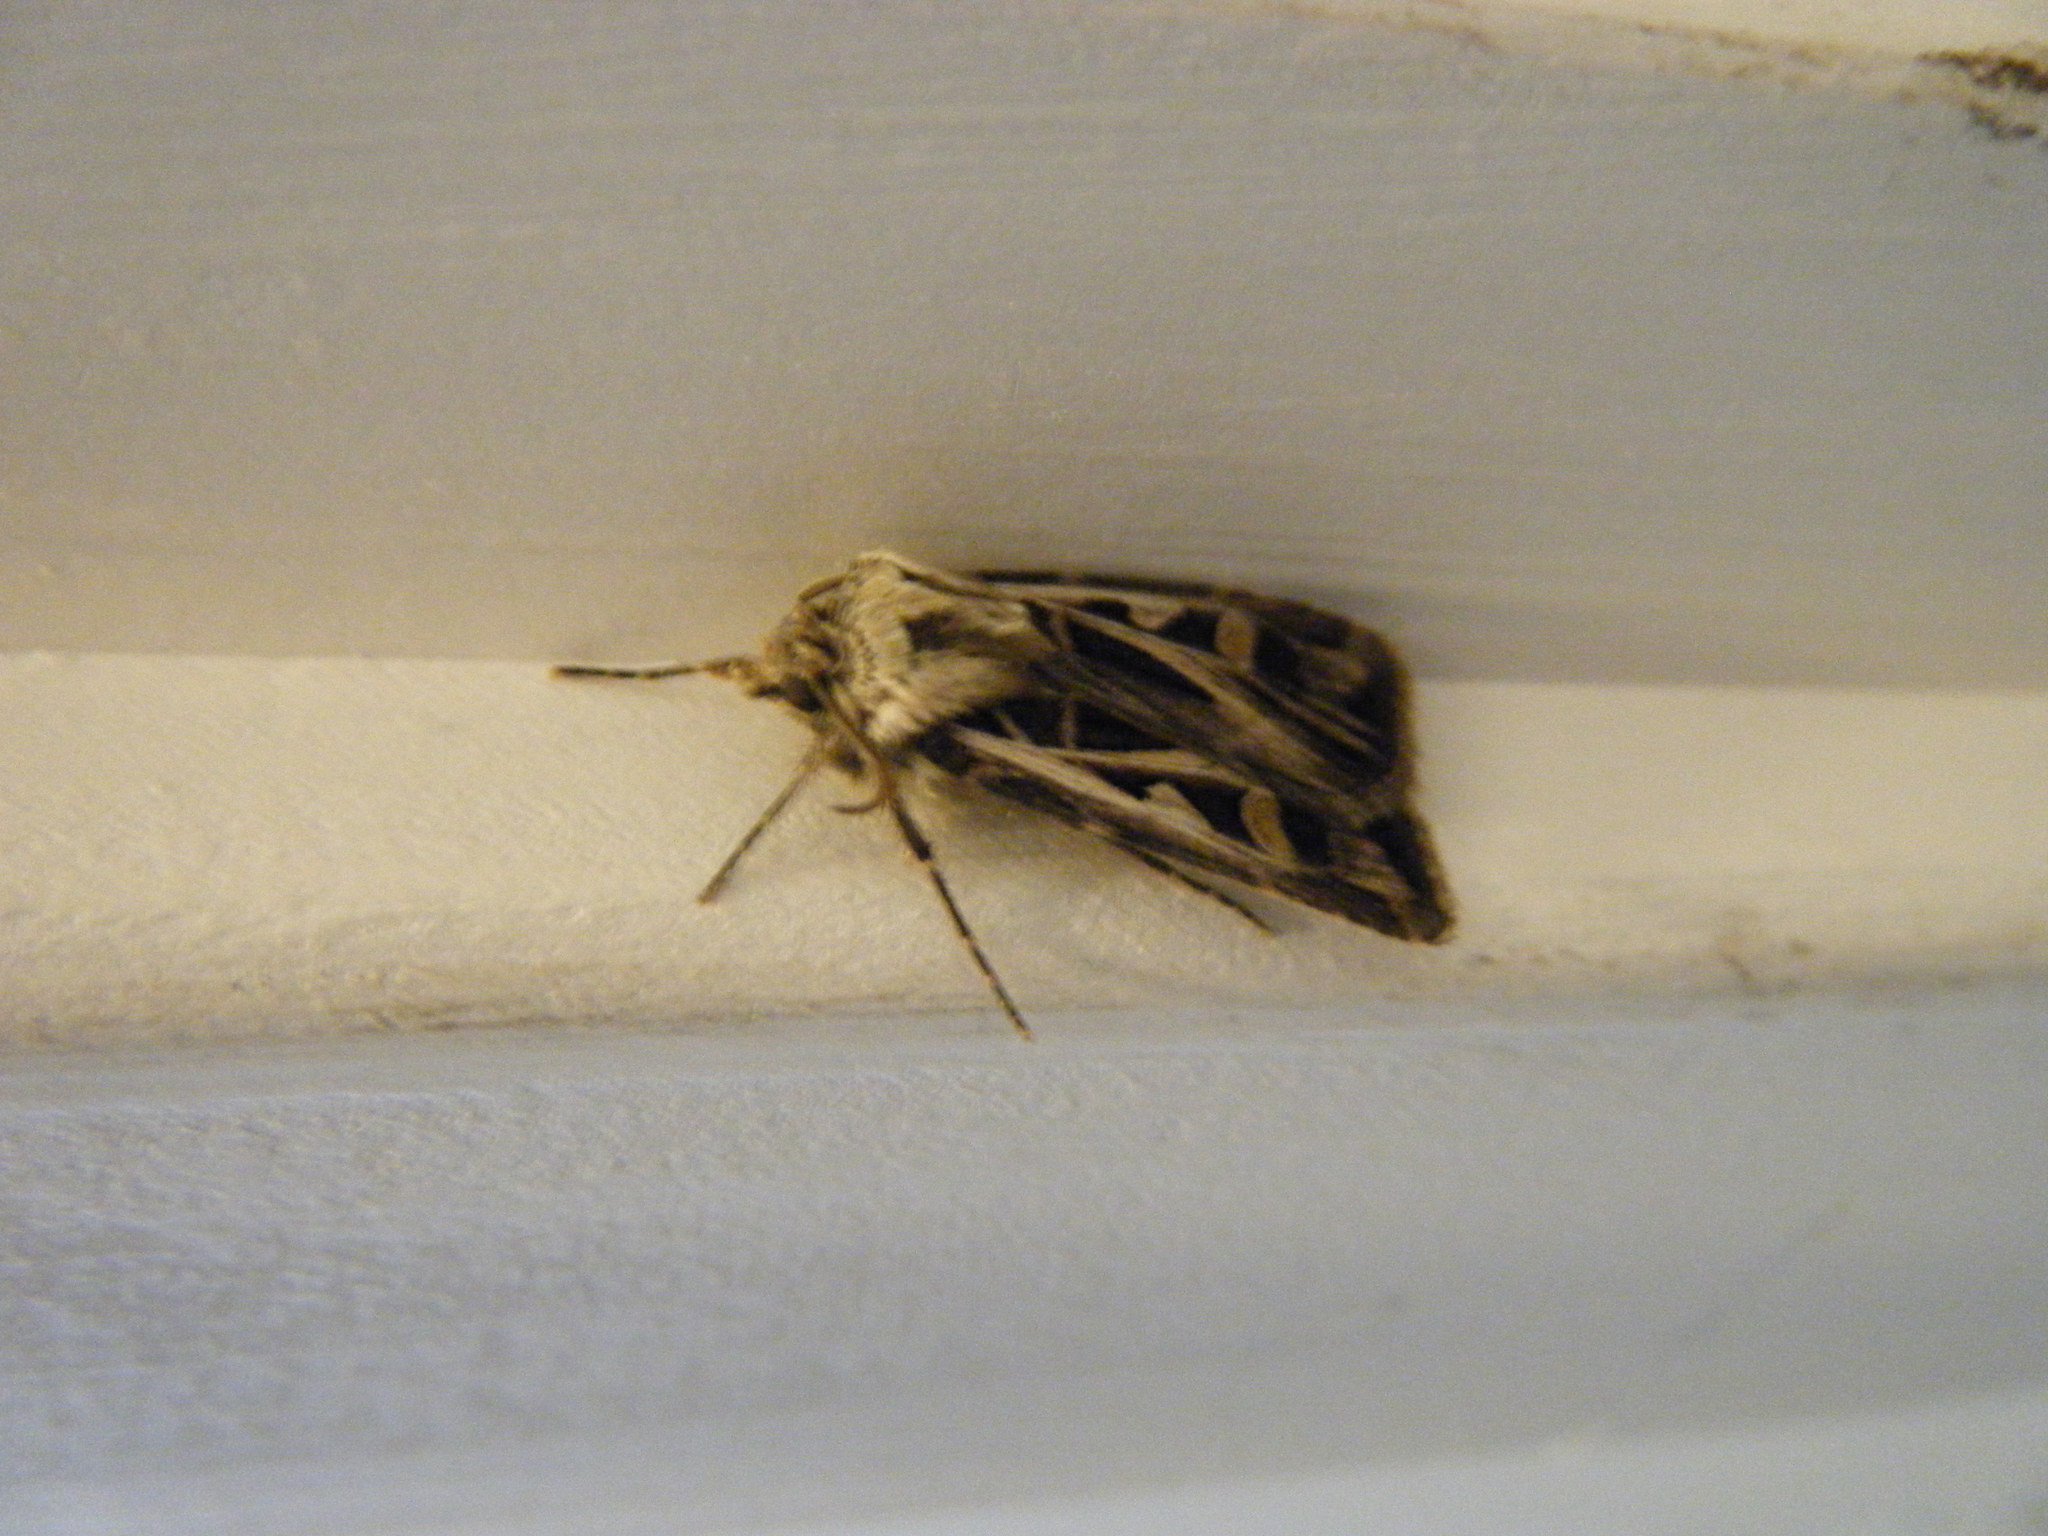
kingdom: Animalia
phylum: Arthropoda
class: Insecta
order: Lepidoptera
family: Noctuidae
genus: Feltia
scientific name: Feltia jaculifera
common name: Dingy cutworm moth
